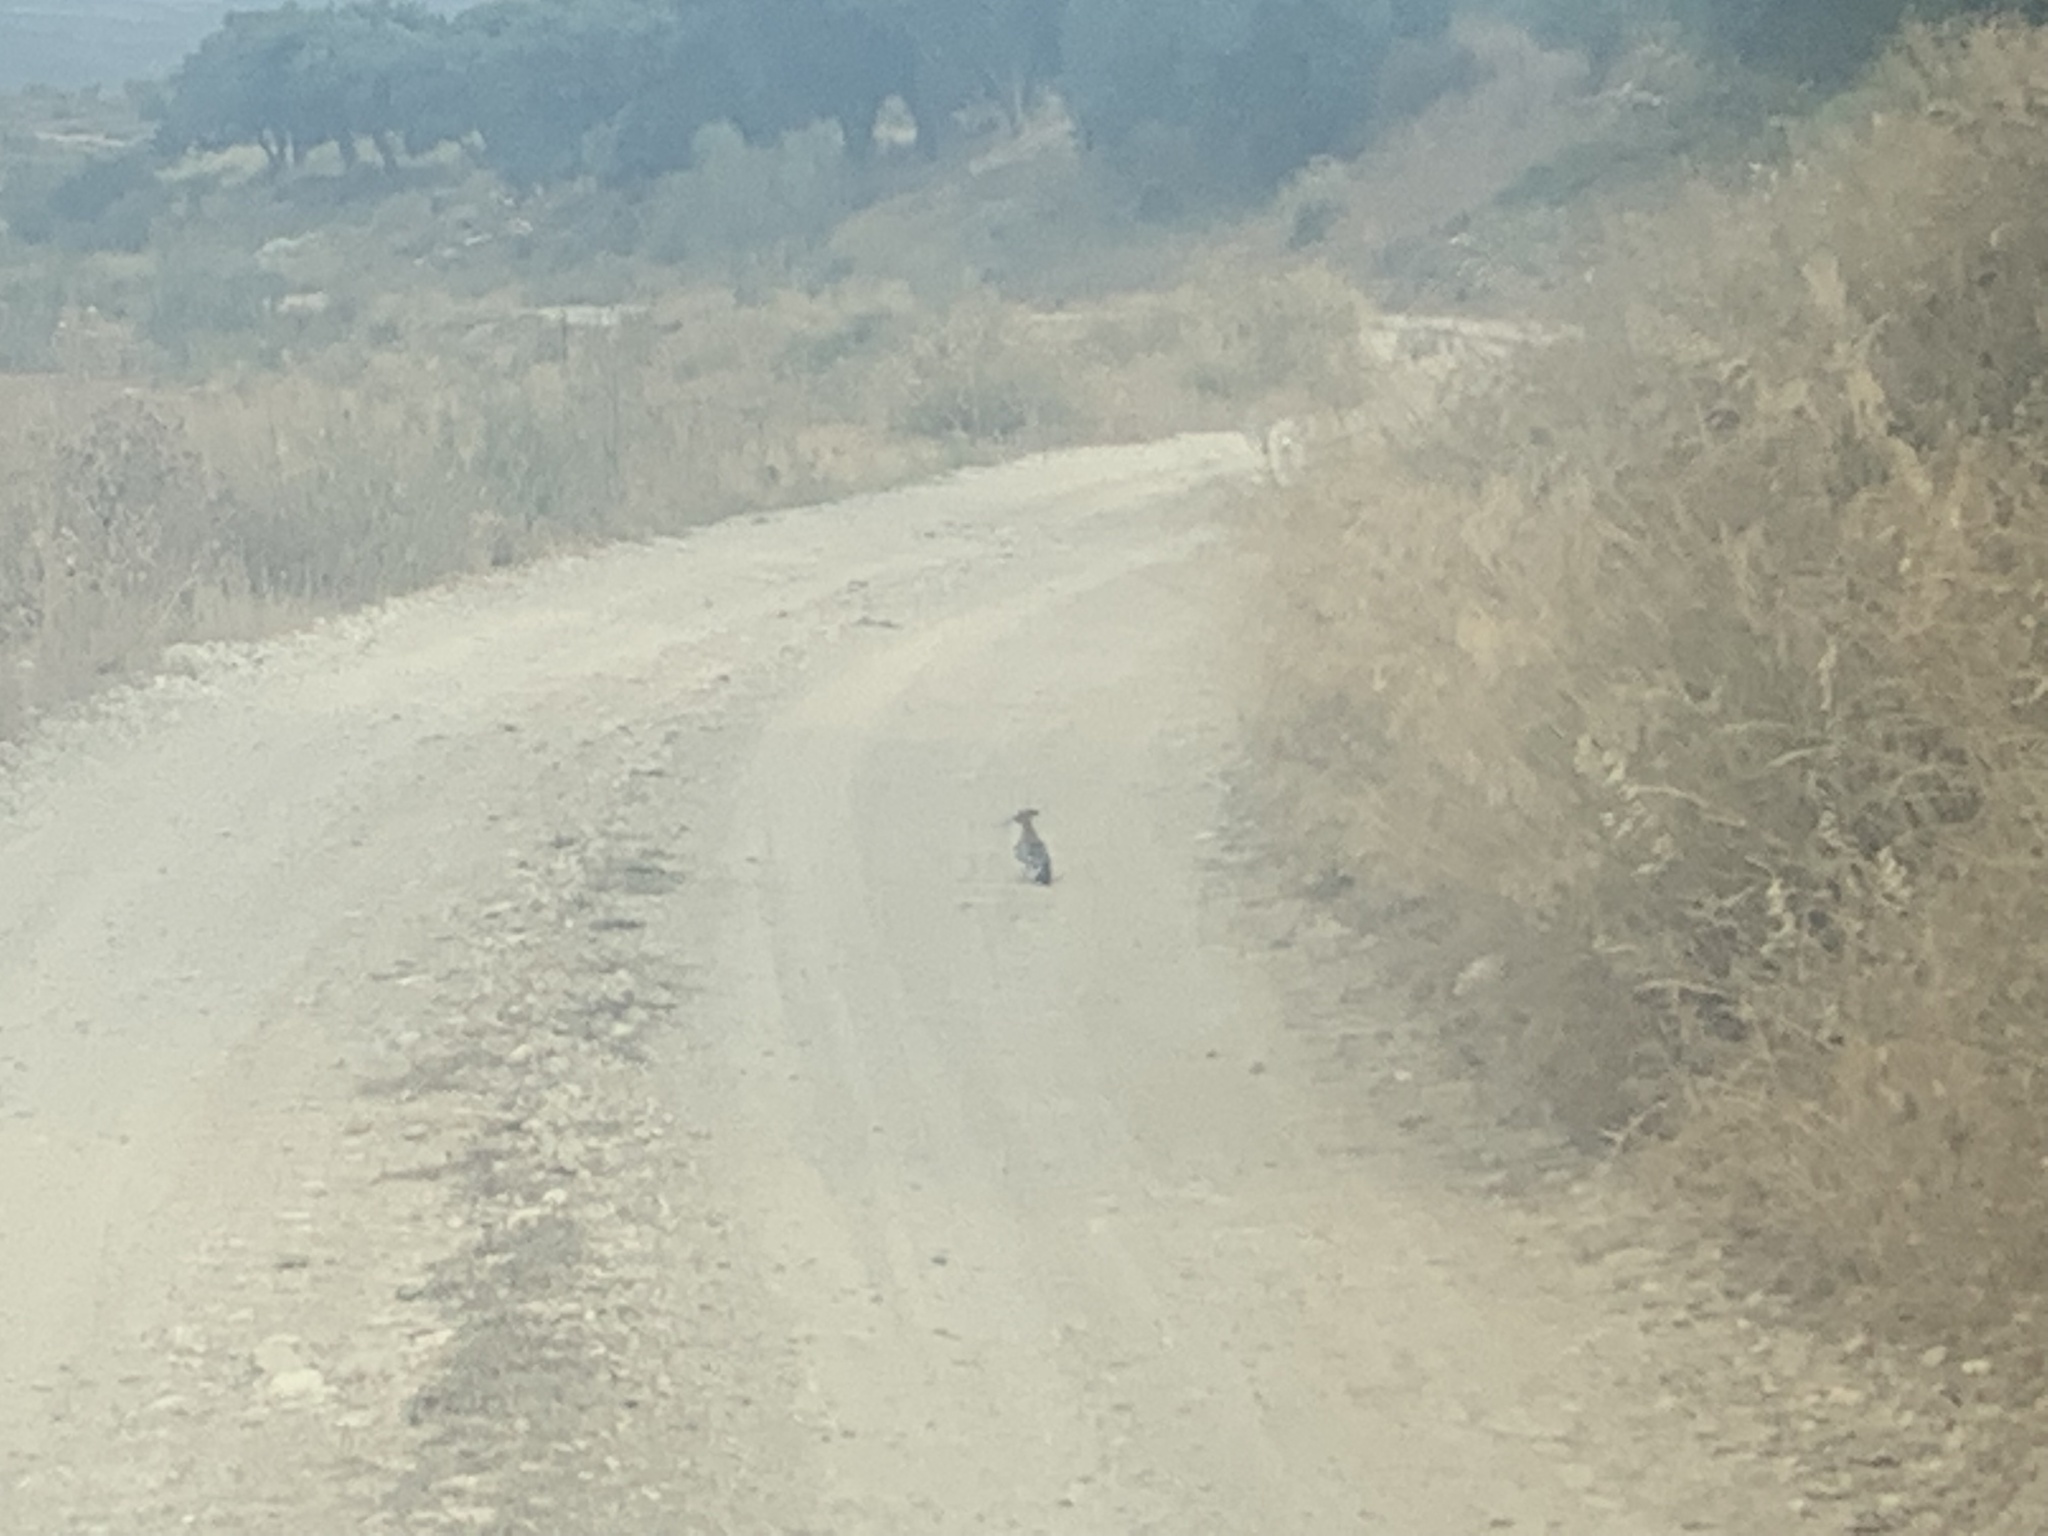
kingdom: Animalia
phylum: Chordata
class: Aves
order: Bucerotiformes
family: Upupidae
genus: Upupa
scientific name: Upupa epops
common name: Eurasian hoopoe
